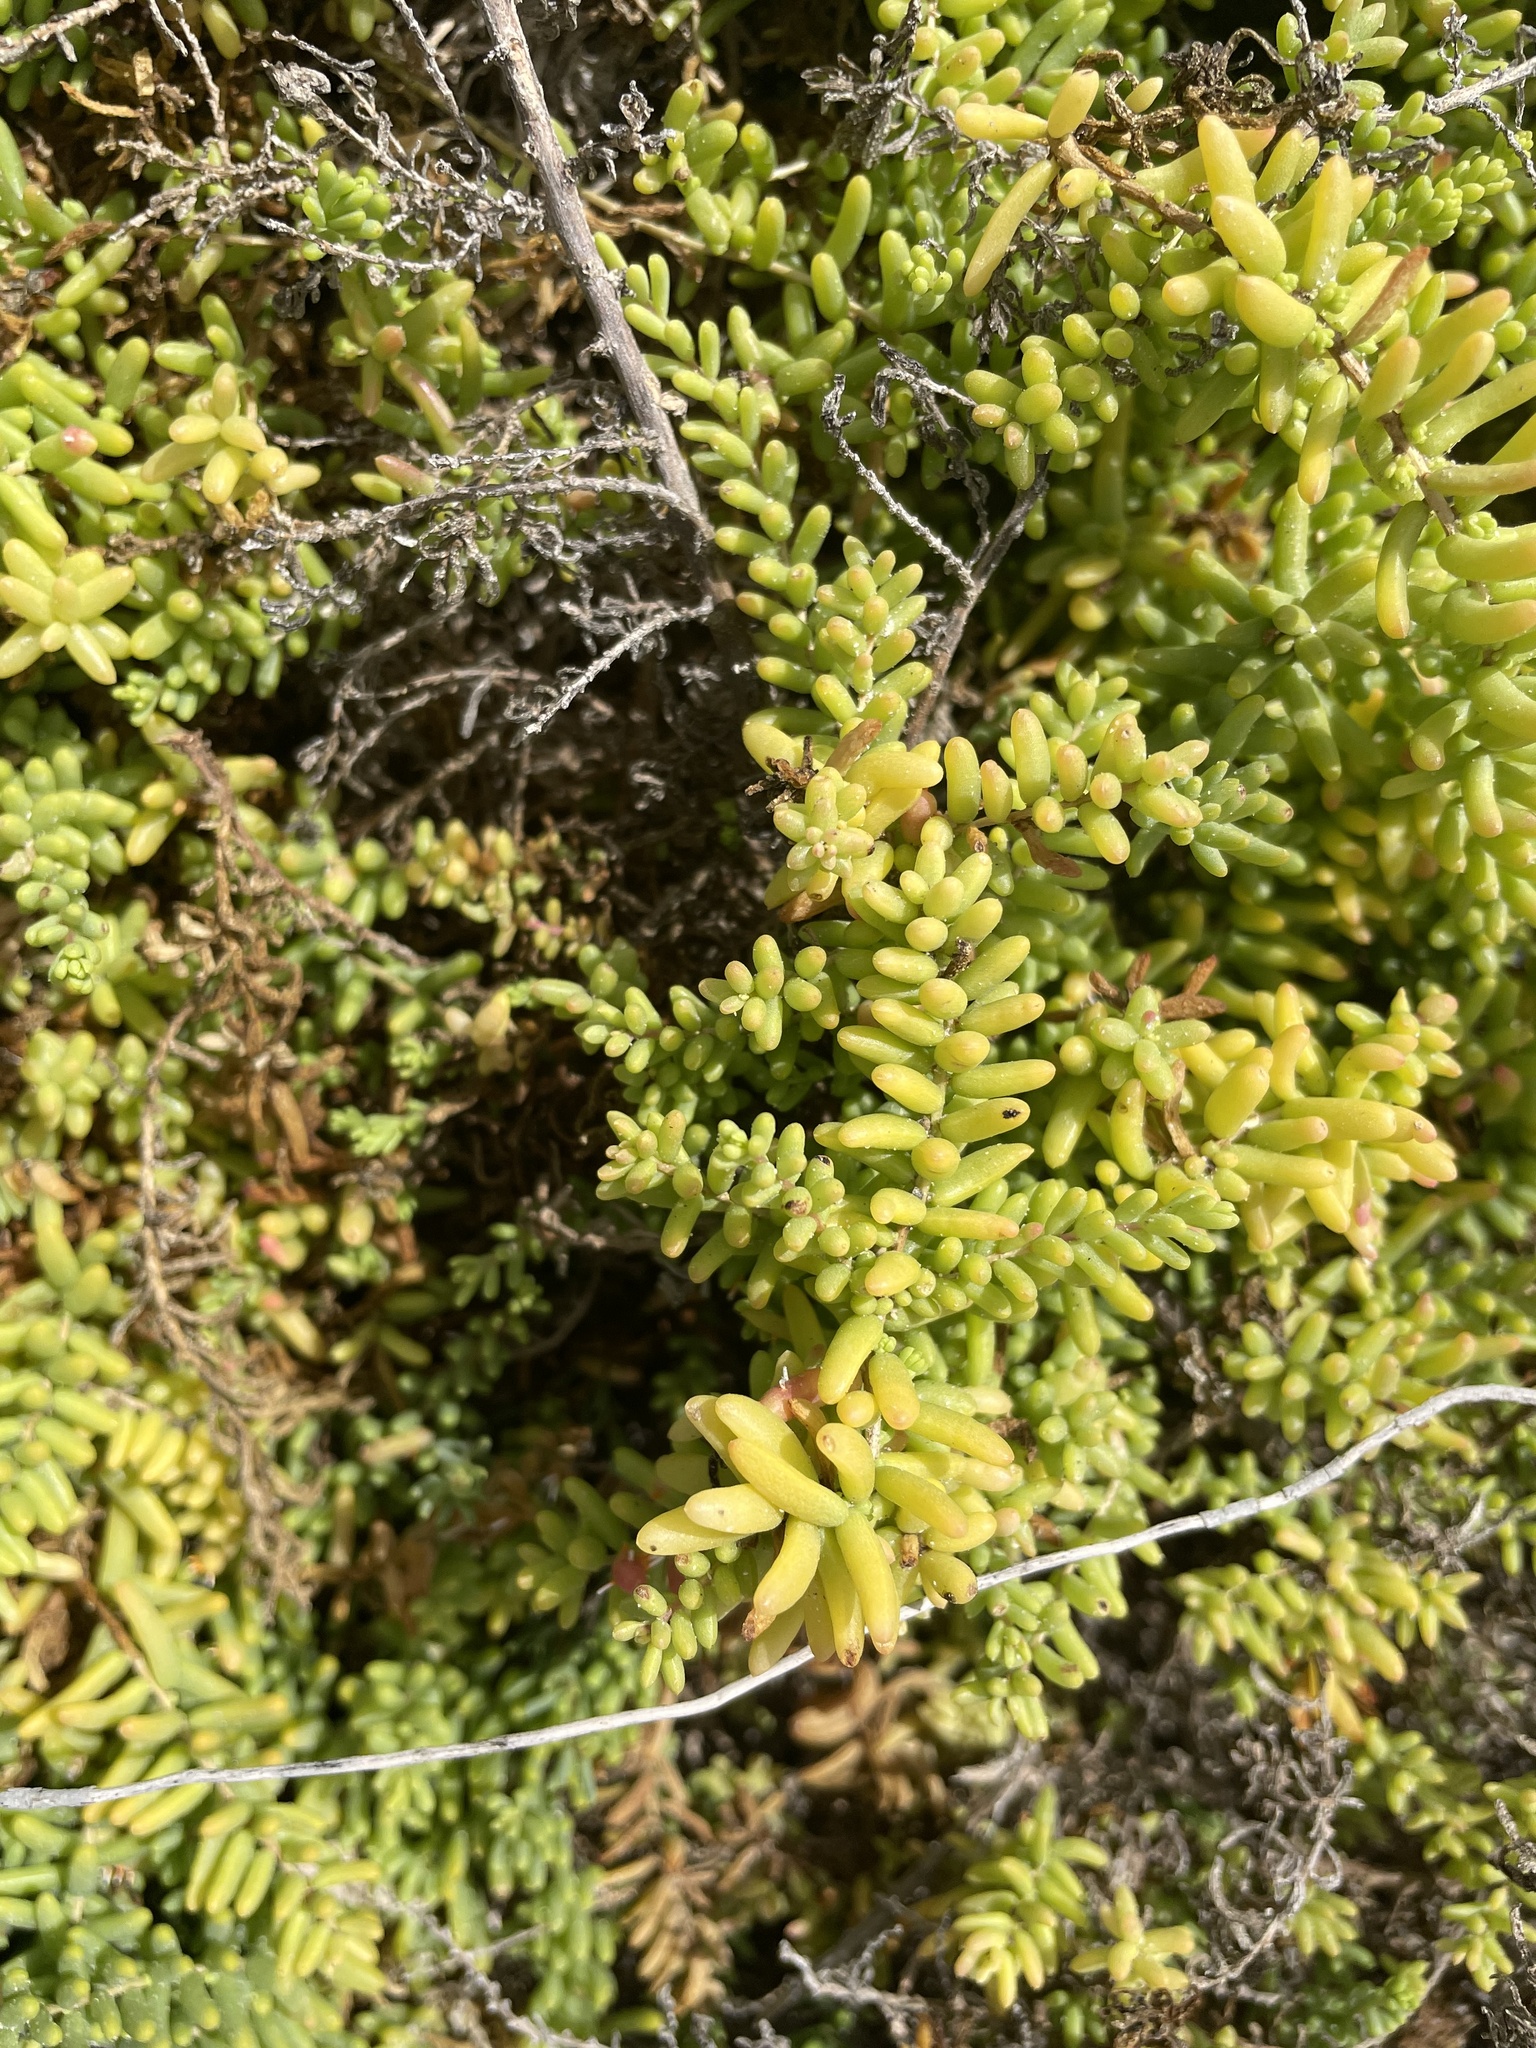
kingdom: Plantae
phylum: Tracheophyta
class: Magnoliopsida
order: Caryophyllales
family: Amaranthaceae
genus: Suaeda
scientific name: Suaeda vera
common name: Shrubby sea-blite
